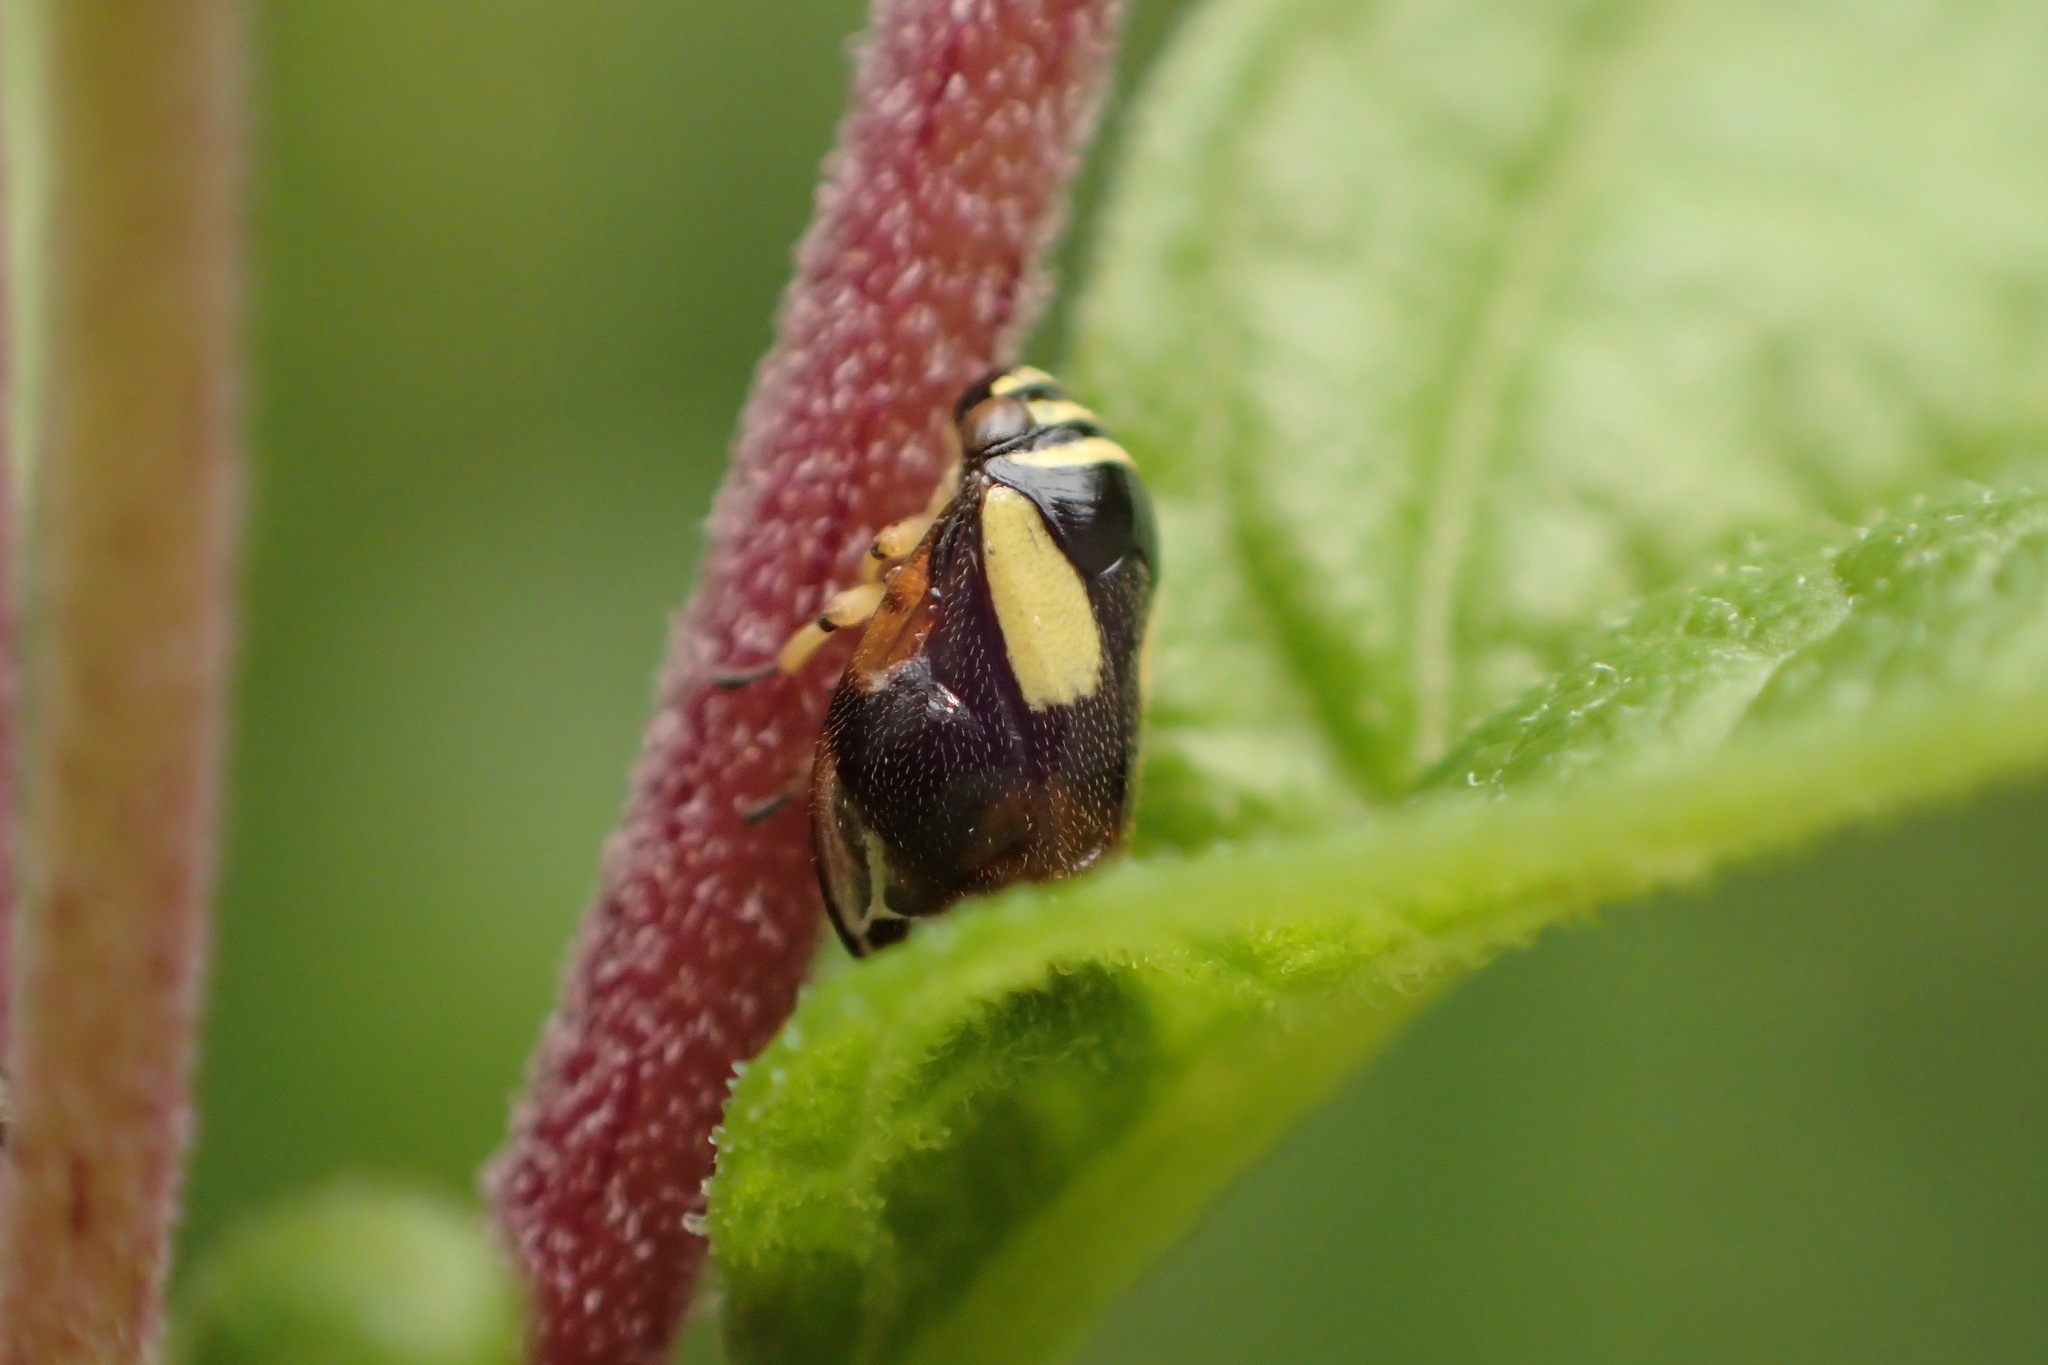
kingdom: Animalia
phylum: Arthropoda
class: Insecta
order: Hemiptera
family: Clastopteridae
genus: Clastoptera
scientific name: Clastoptera proteus
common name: Dogwood spittlebug
